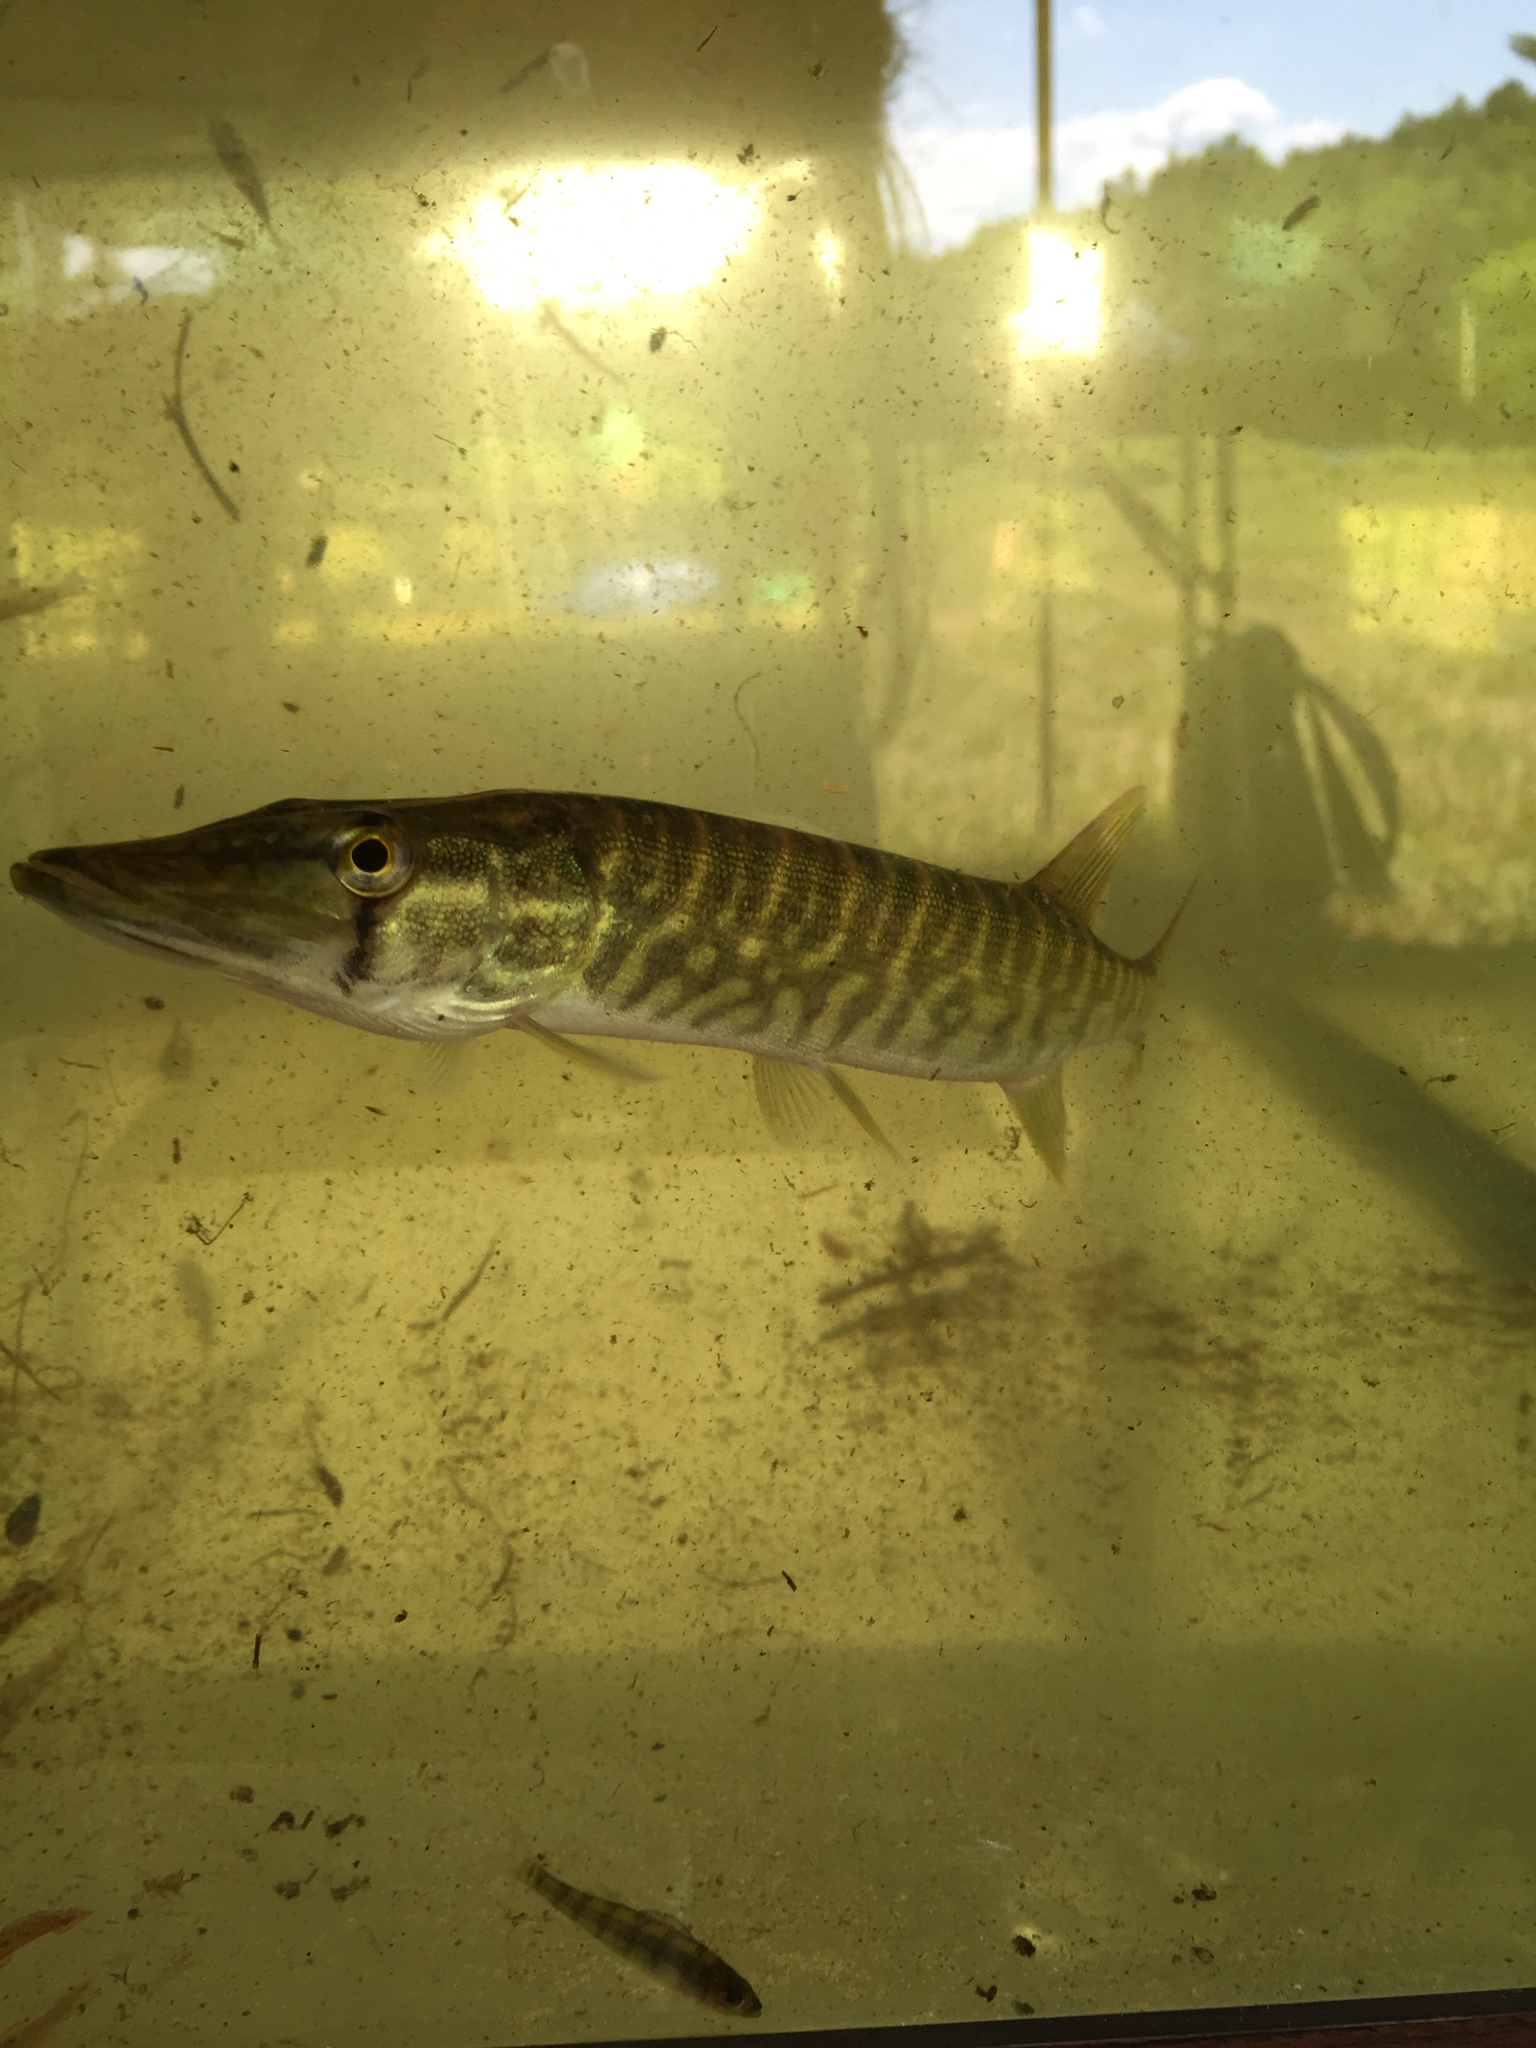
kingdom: Animalia
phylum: Chordata
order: Esociformes
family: Esocidae
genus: Esox
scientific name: Esox niger
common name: Chain pickerel
